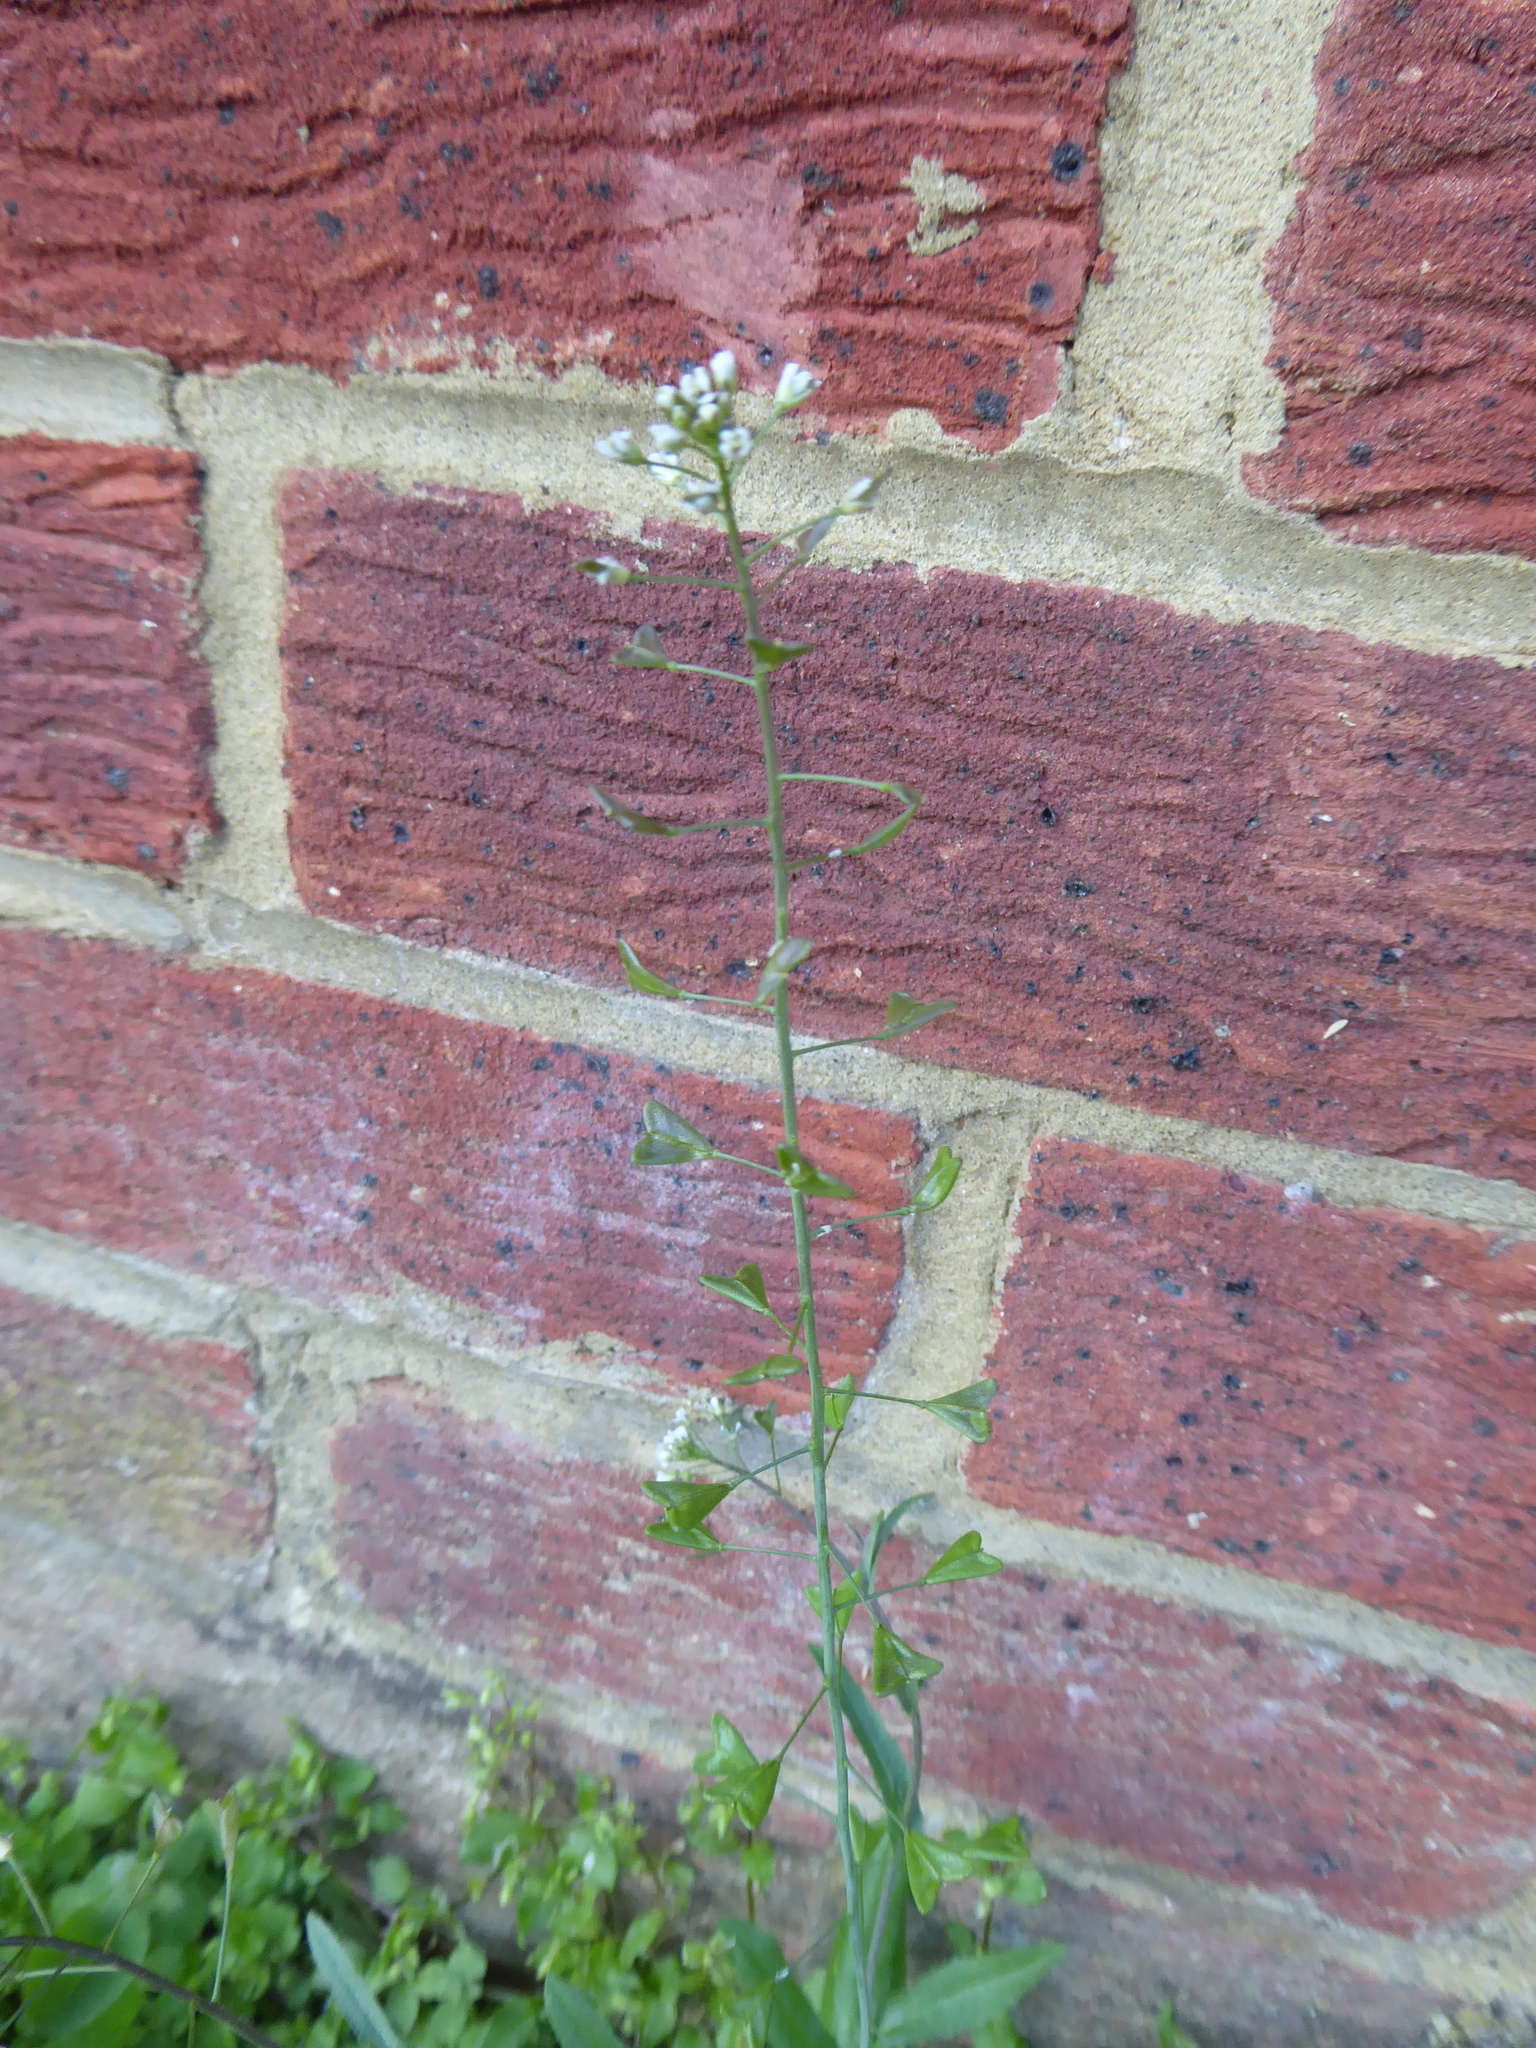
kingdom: Plantae
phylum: Tracheophyta
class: Magnoliopsida
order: Brassicales
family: Brassicaceae
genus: Capsella
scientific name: Capsella bursa-pastoris
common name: Shepherd's purse
